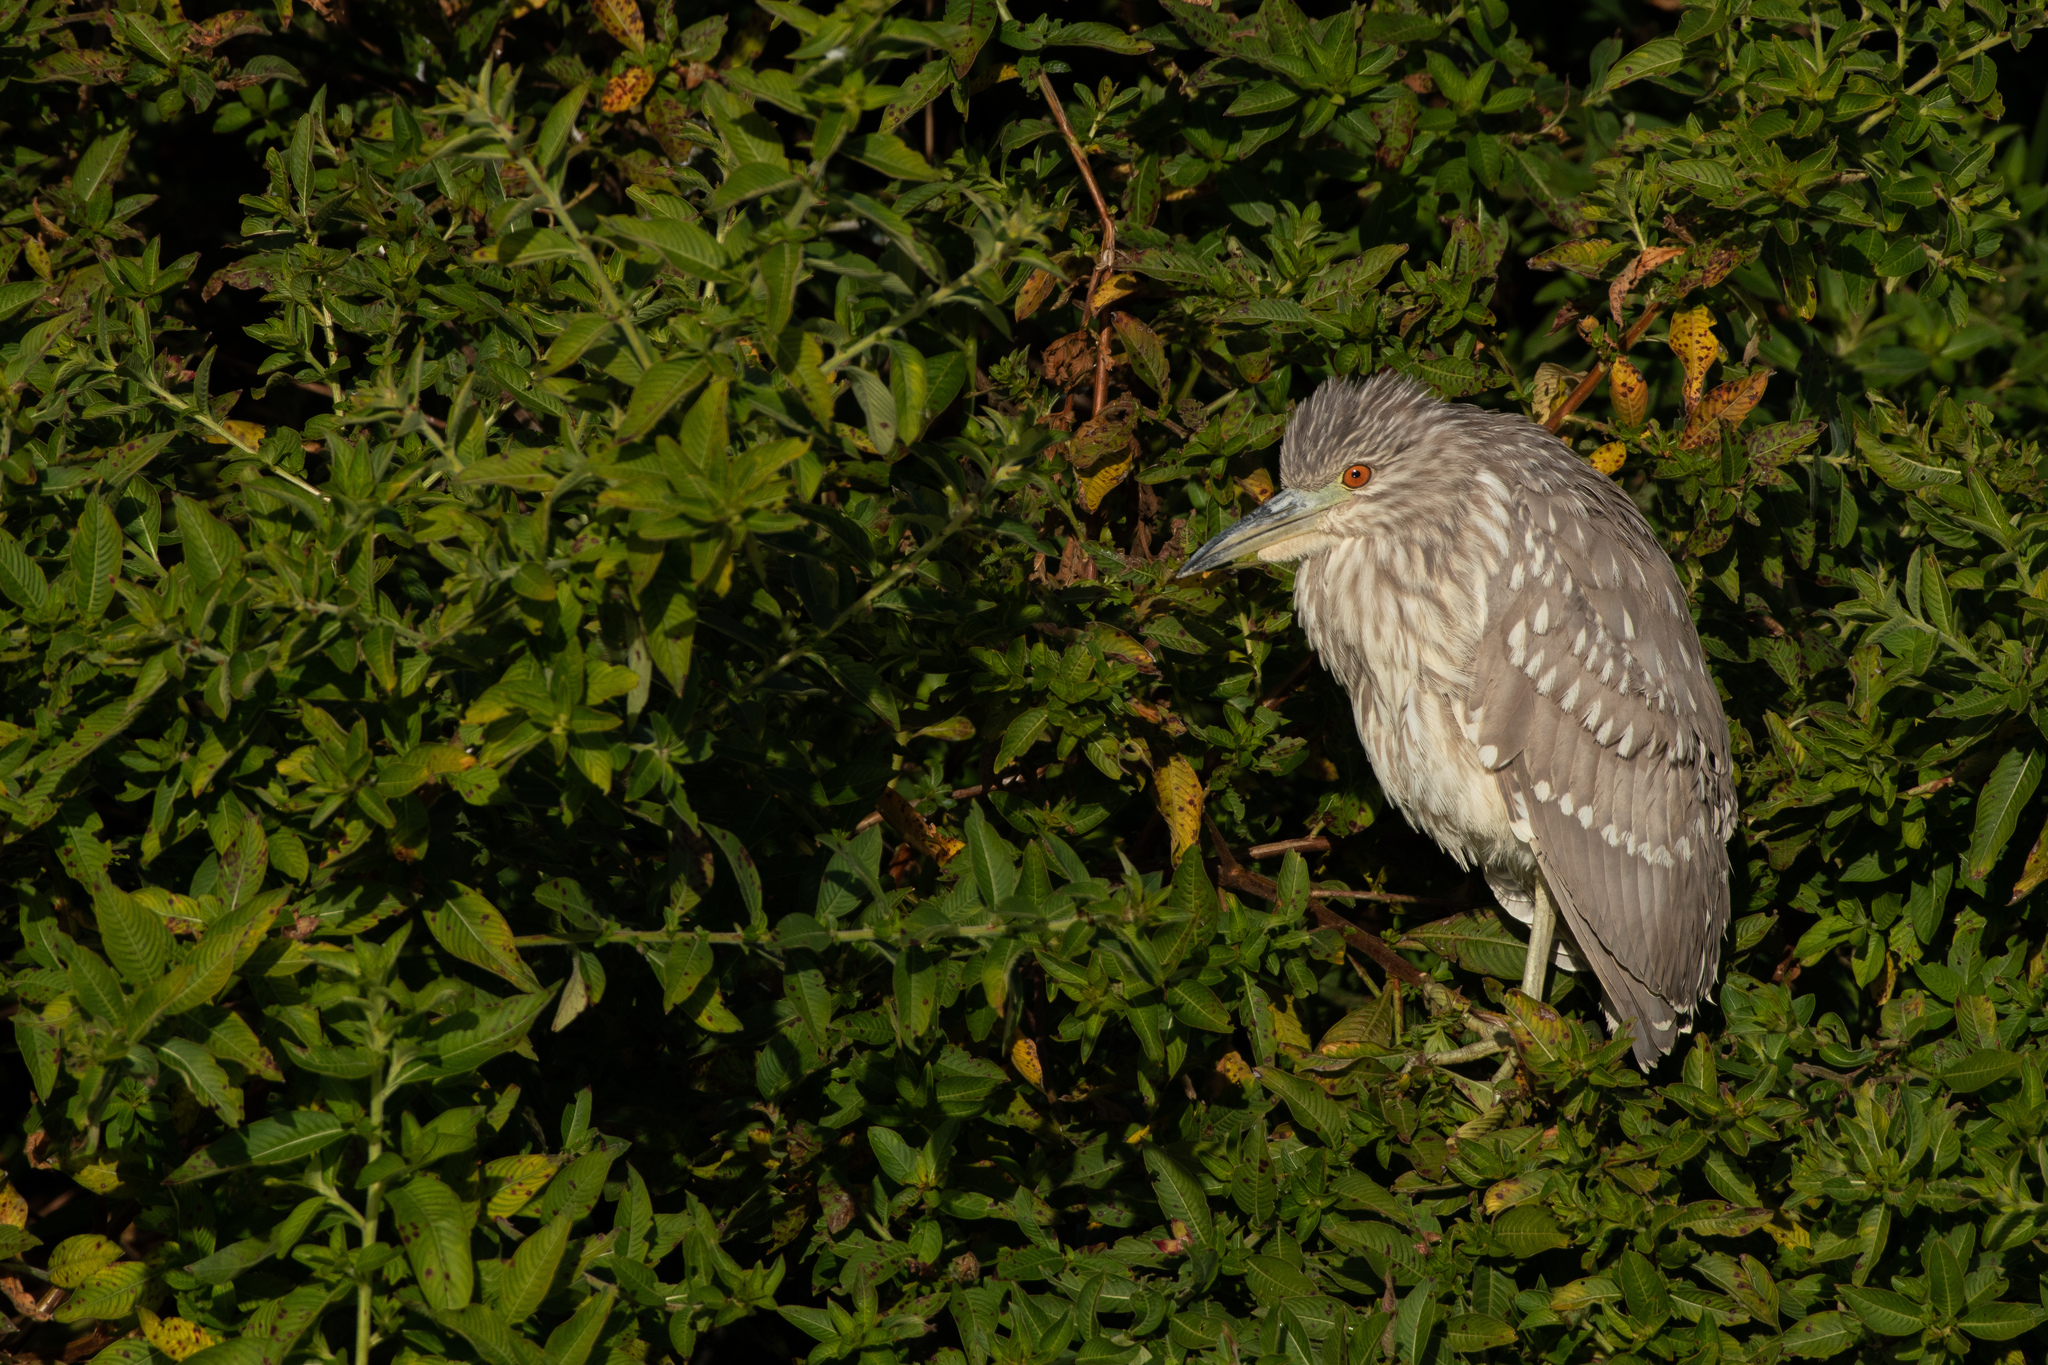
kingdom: Animalia
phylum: Chordata
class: Aves
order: Pelecaniformes
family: Ardeidae
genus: Nycticorax
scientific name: Nycticorax nycticorax
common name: Black-crowned night heron
